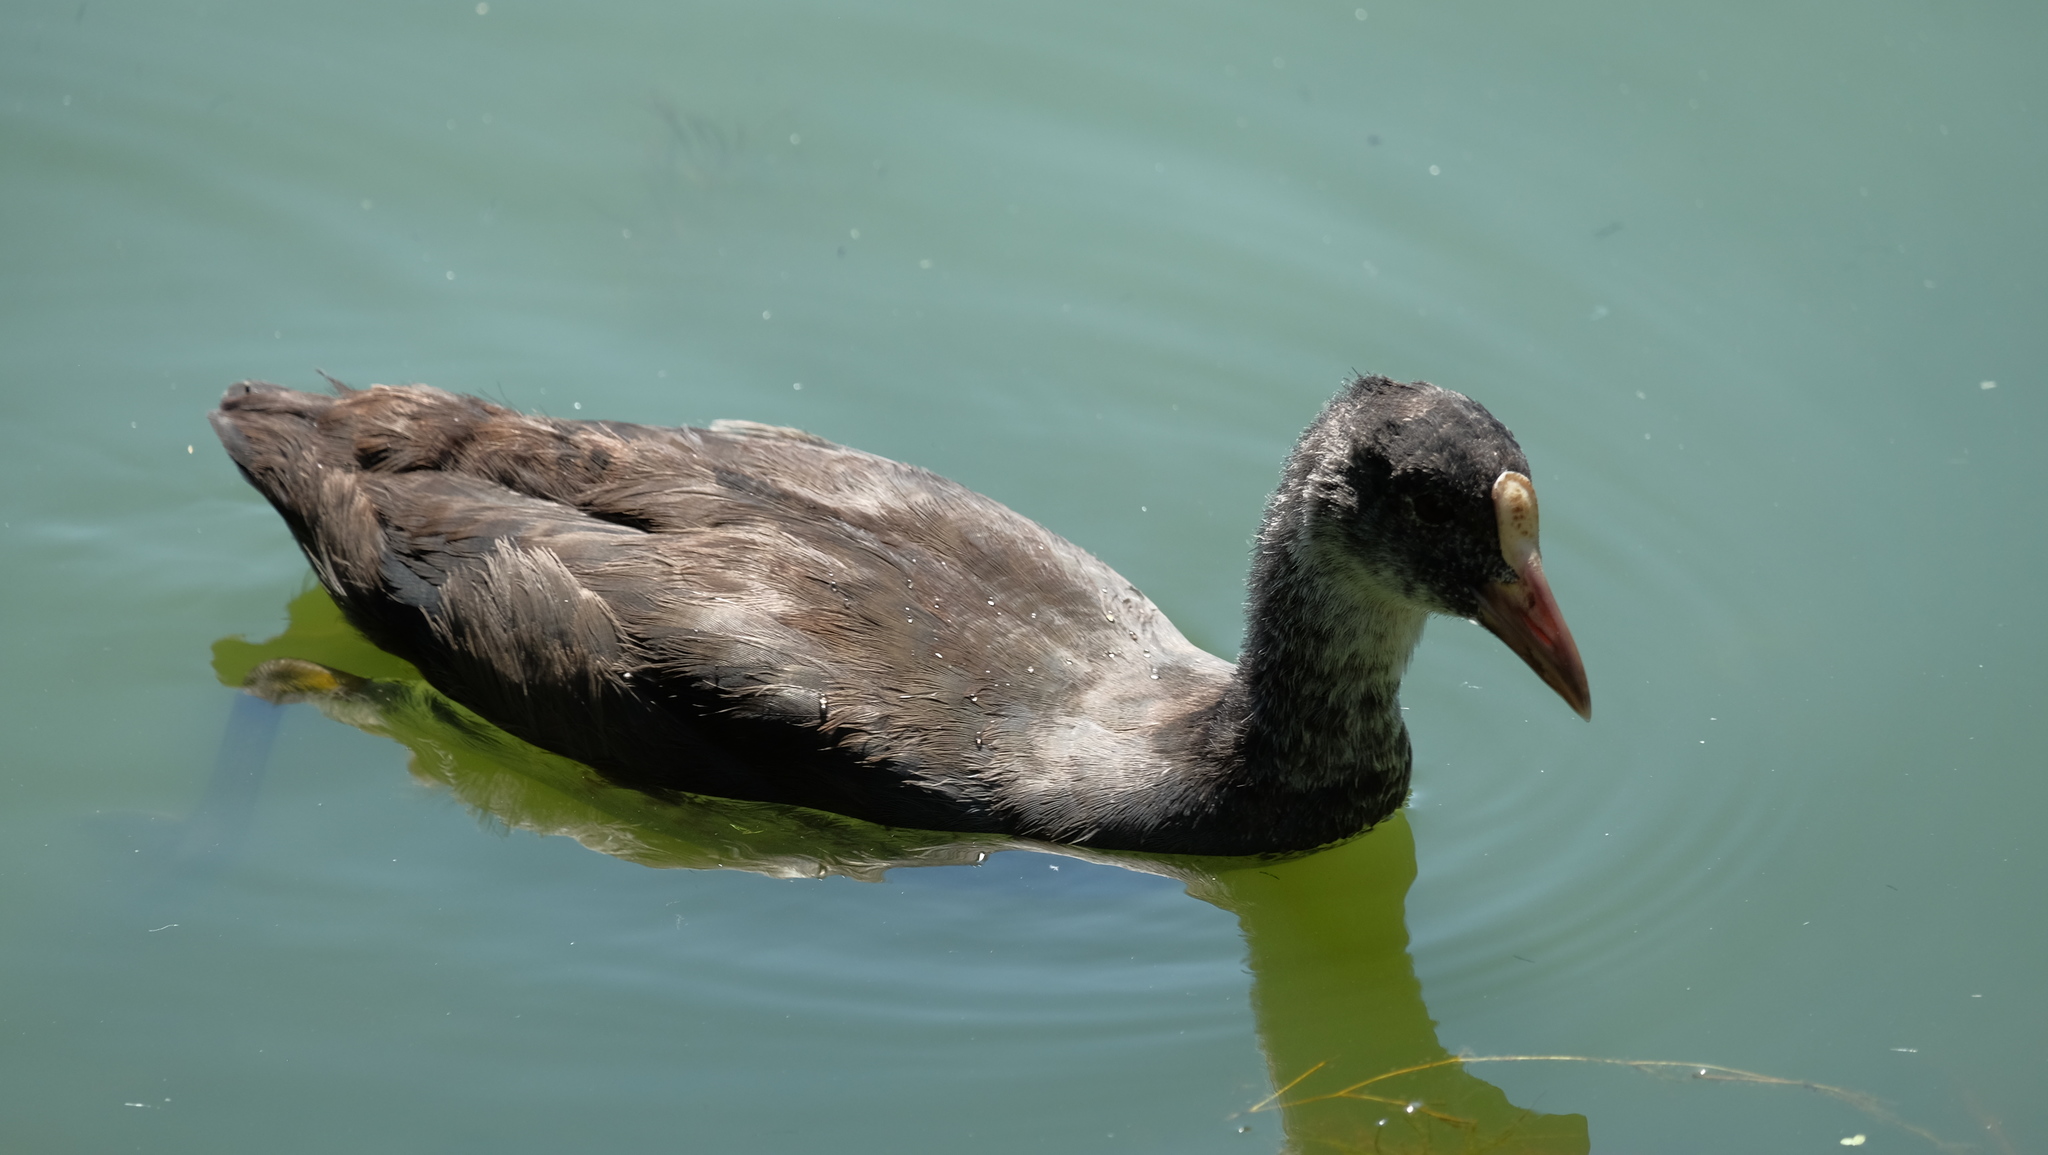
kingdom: Animalia
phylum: Chordata
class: Aves
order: Gruiformes
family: Rallidae
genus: Fulica
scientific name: Fulica atra
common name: Eurasian coot
